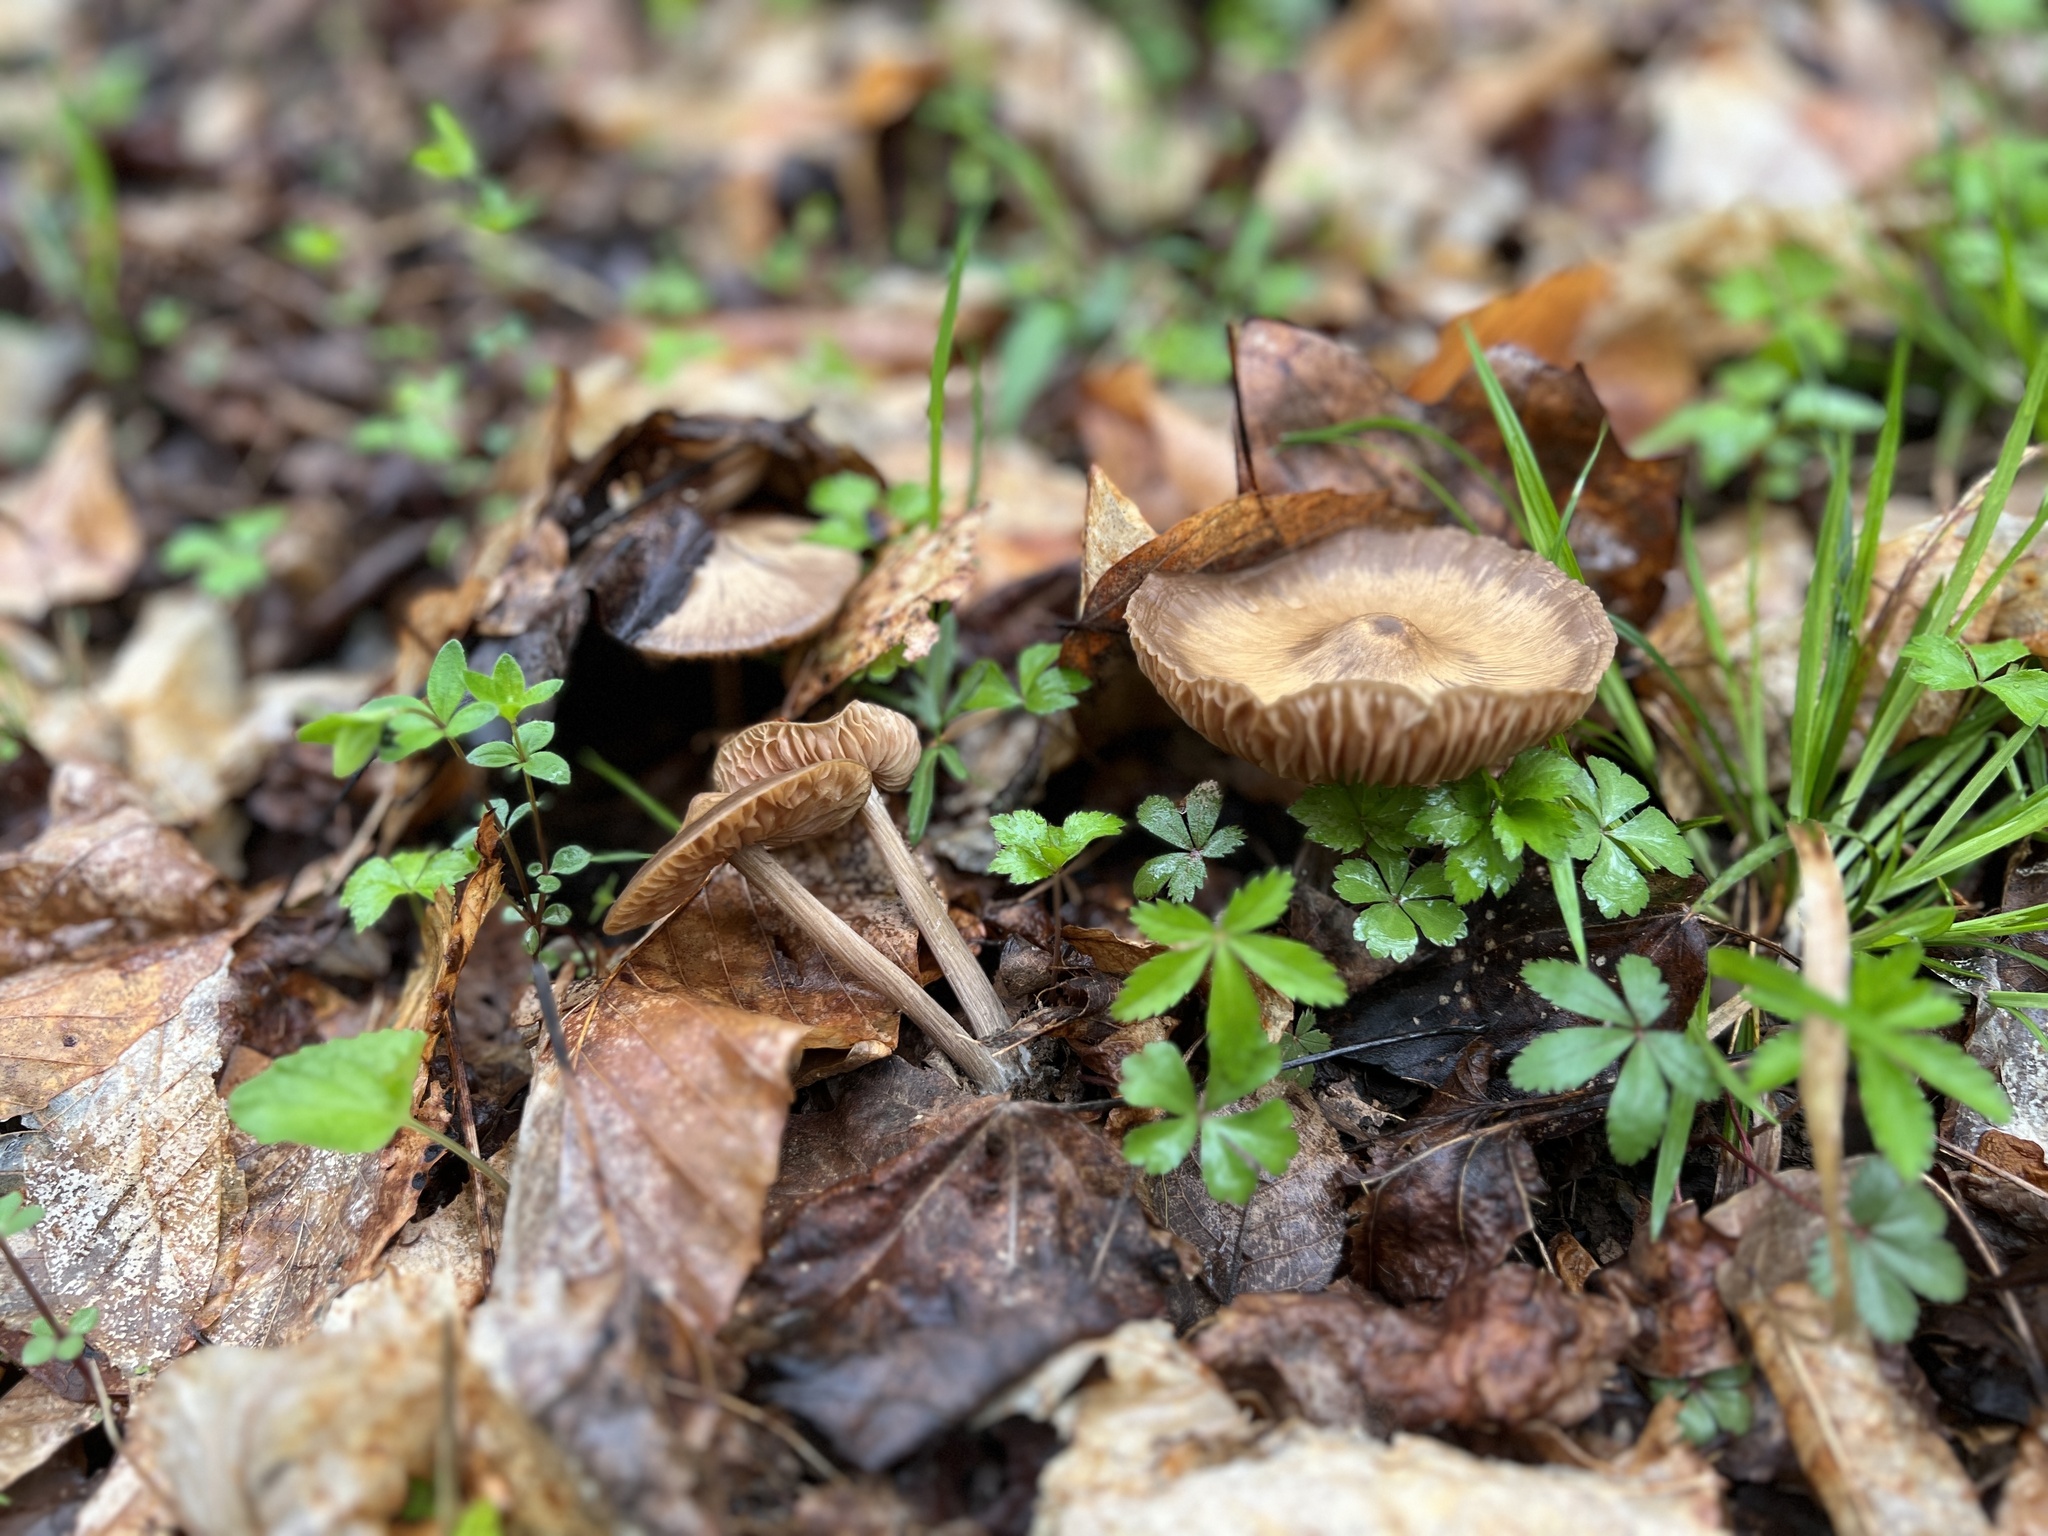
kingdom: Fungi
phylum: Basidiomycota
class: Agaricomycetes
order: Agaricales
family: Entolomataceae
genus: Entoloma
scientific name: Entoloma vernum
